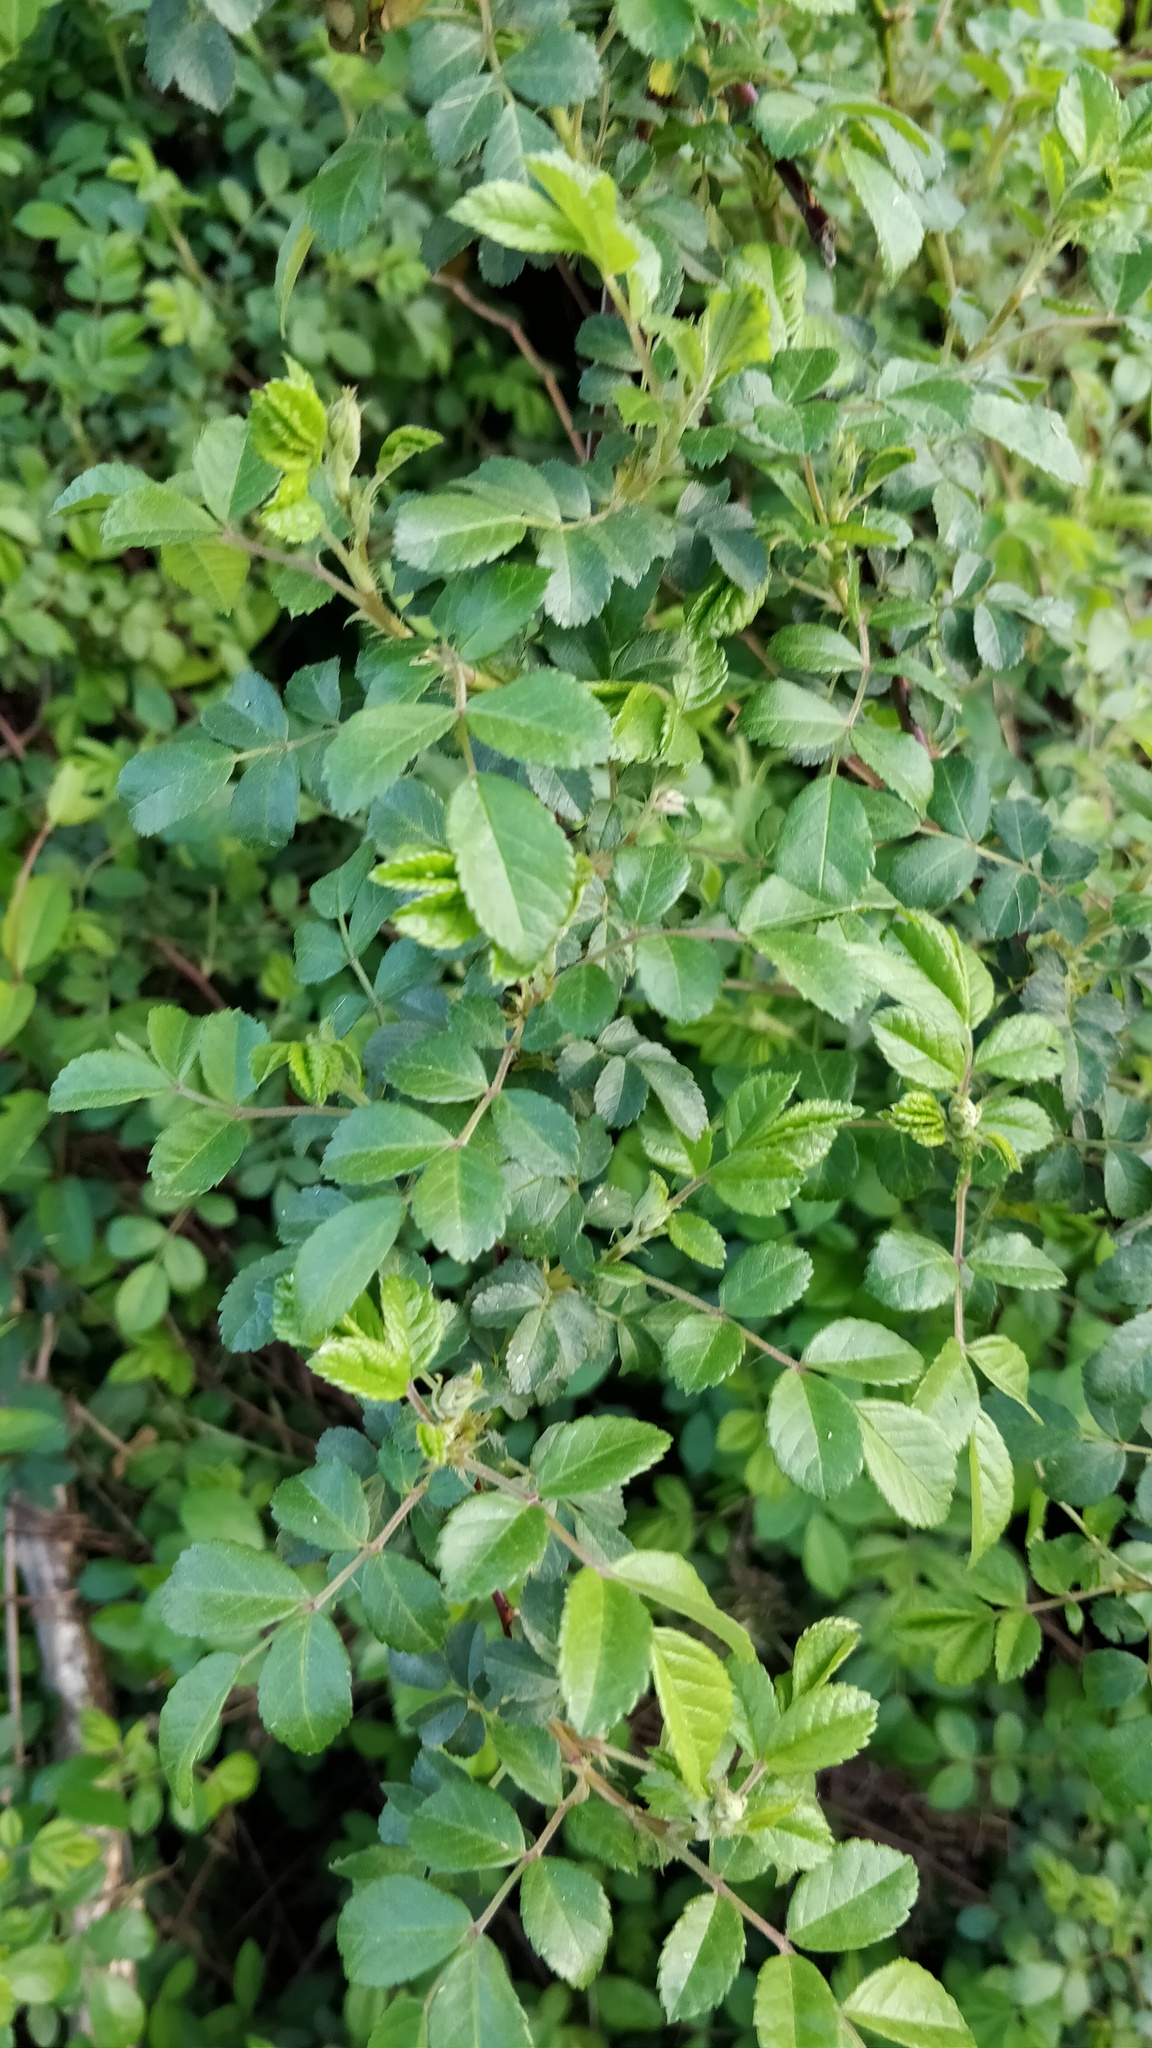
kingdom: Plantae
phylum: Tracheophyta
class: Magnoliopsida
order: Rosales
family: Rosaceae
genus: Rosa
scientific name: Rosa multiflora
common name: Multiflora rose
